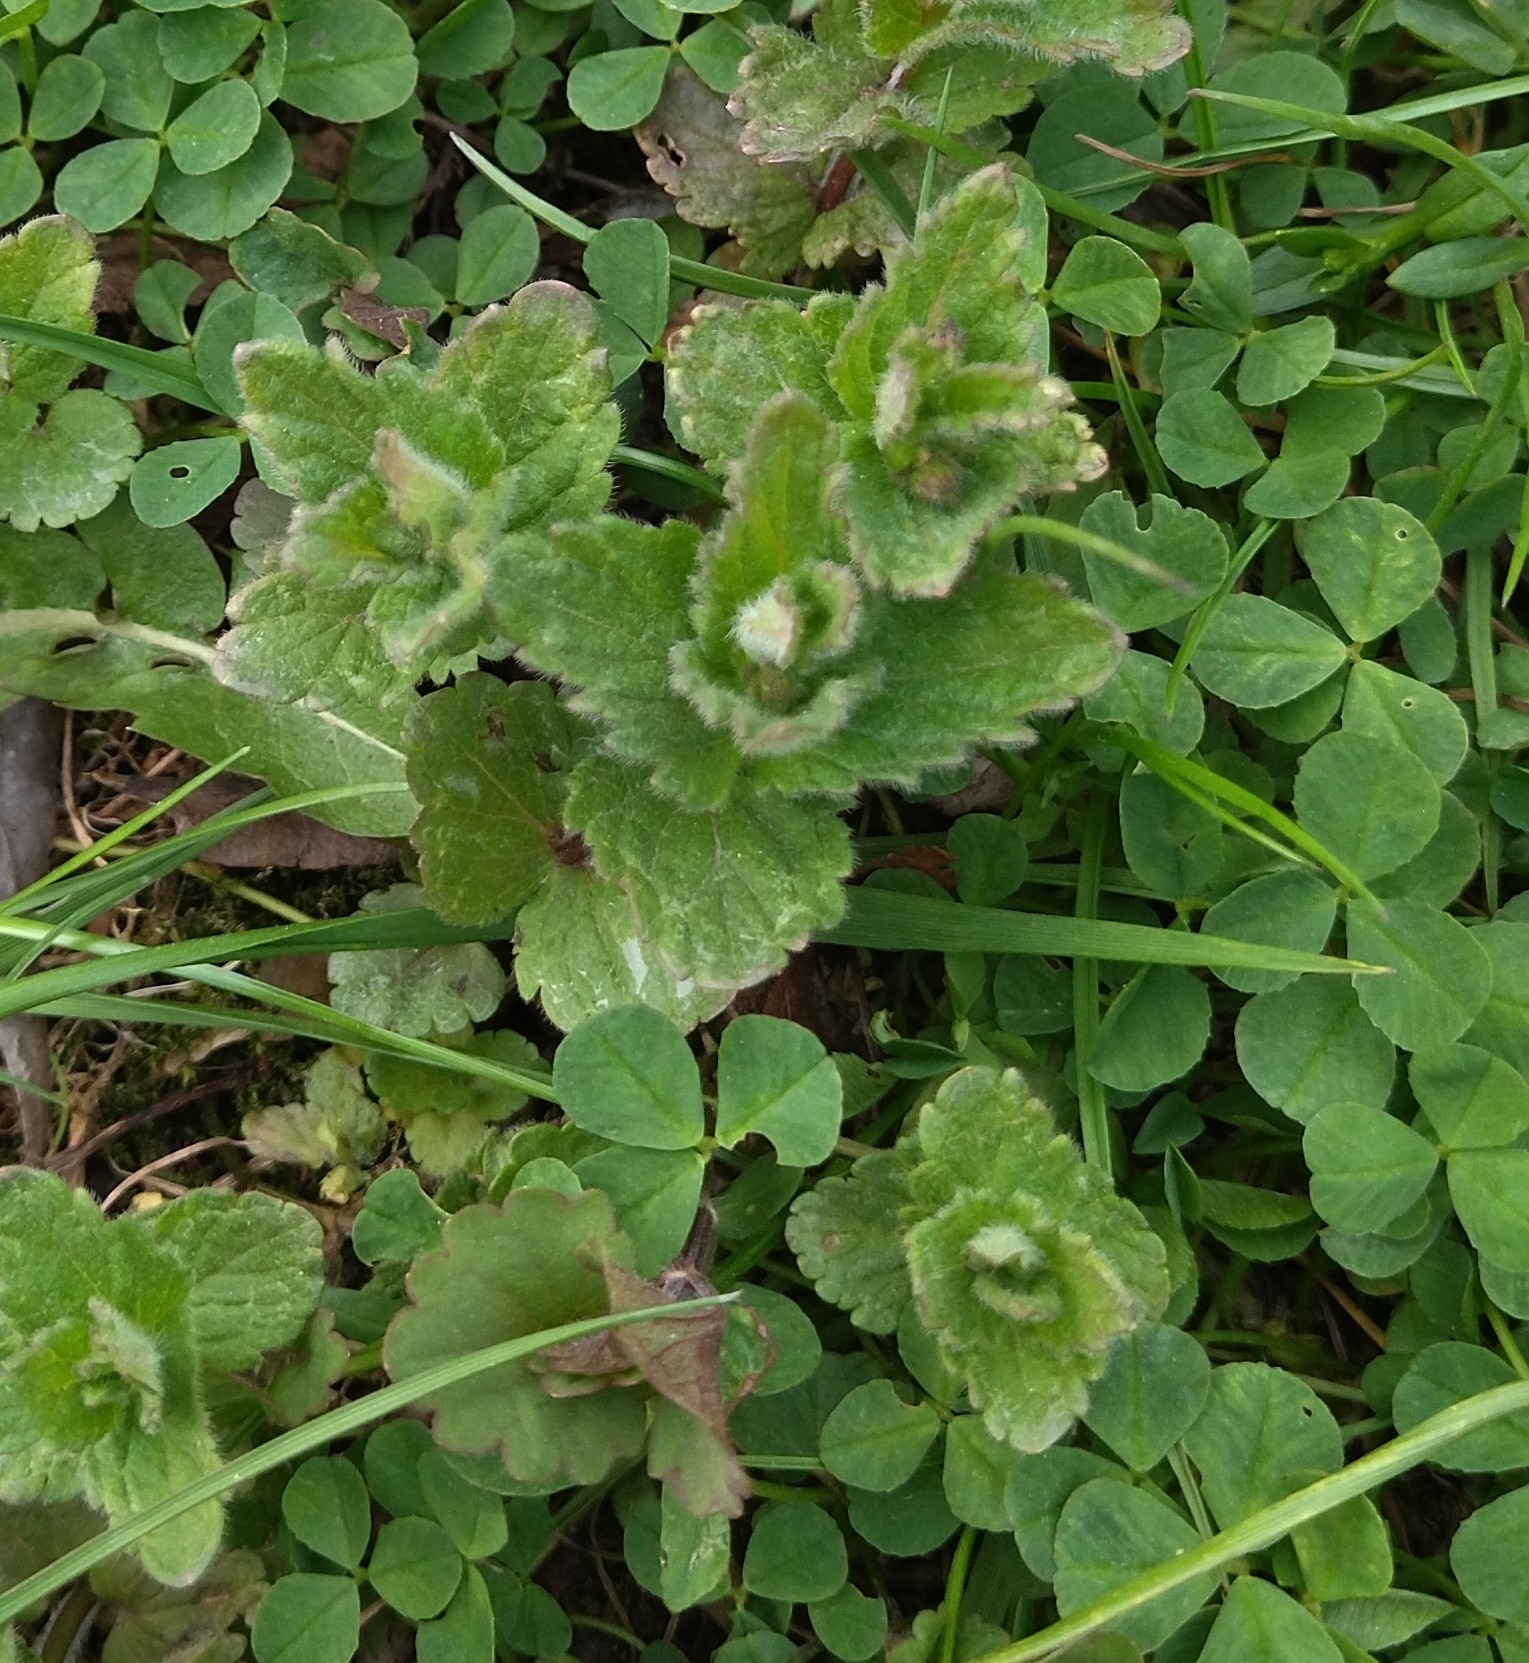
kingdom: Plantae
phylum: Tracheophyta
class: Magnoliopsida
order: Lamiales
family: Plantaginaceae
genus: Veronica
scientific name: Veronica chamaedrys
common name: Germander speedwell
